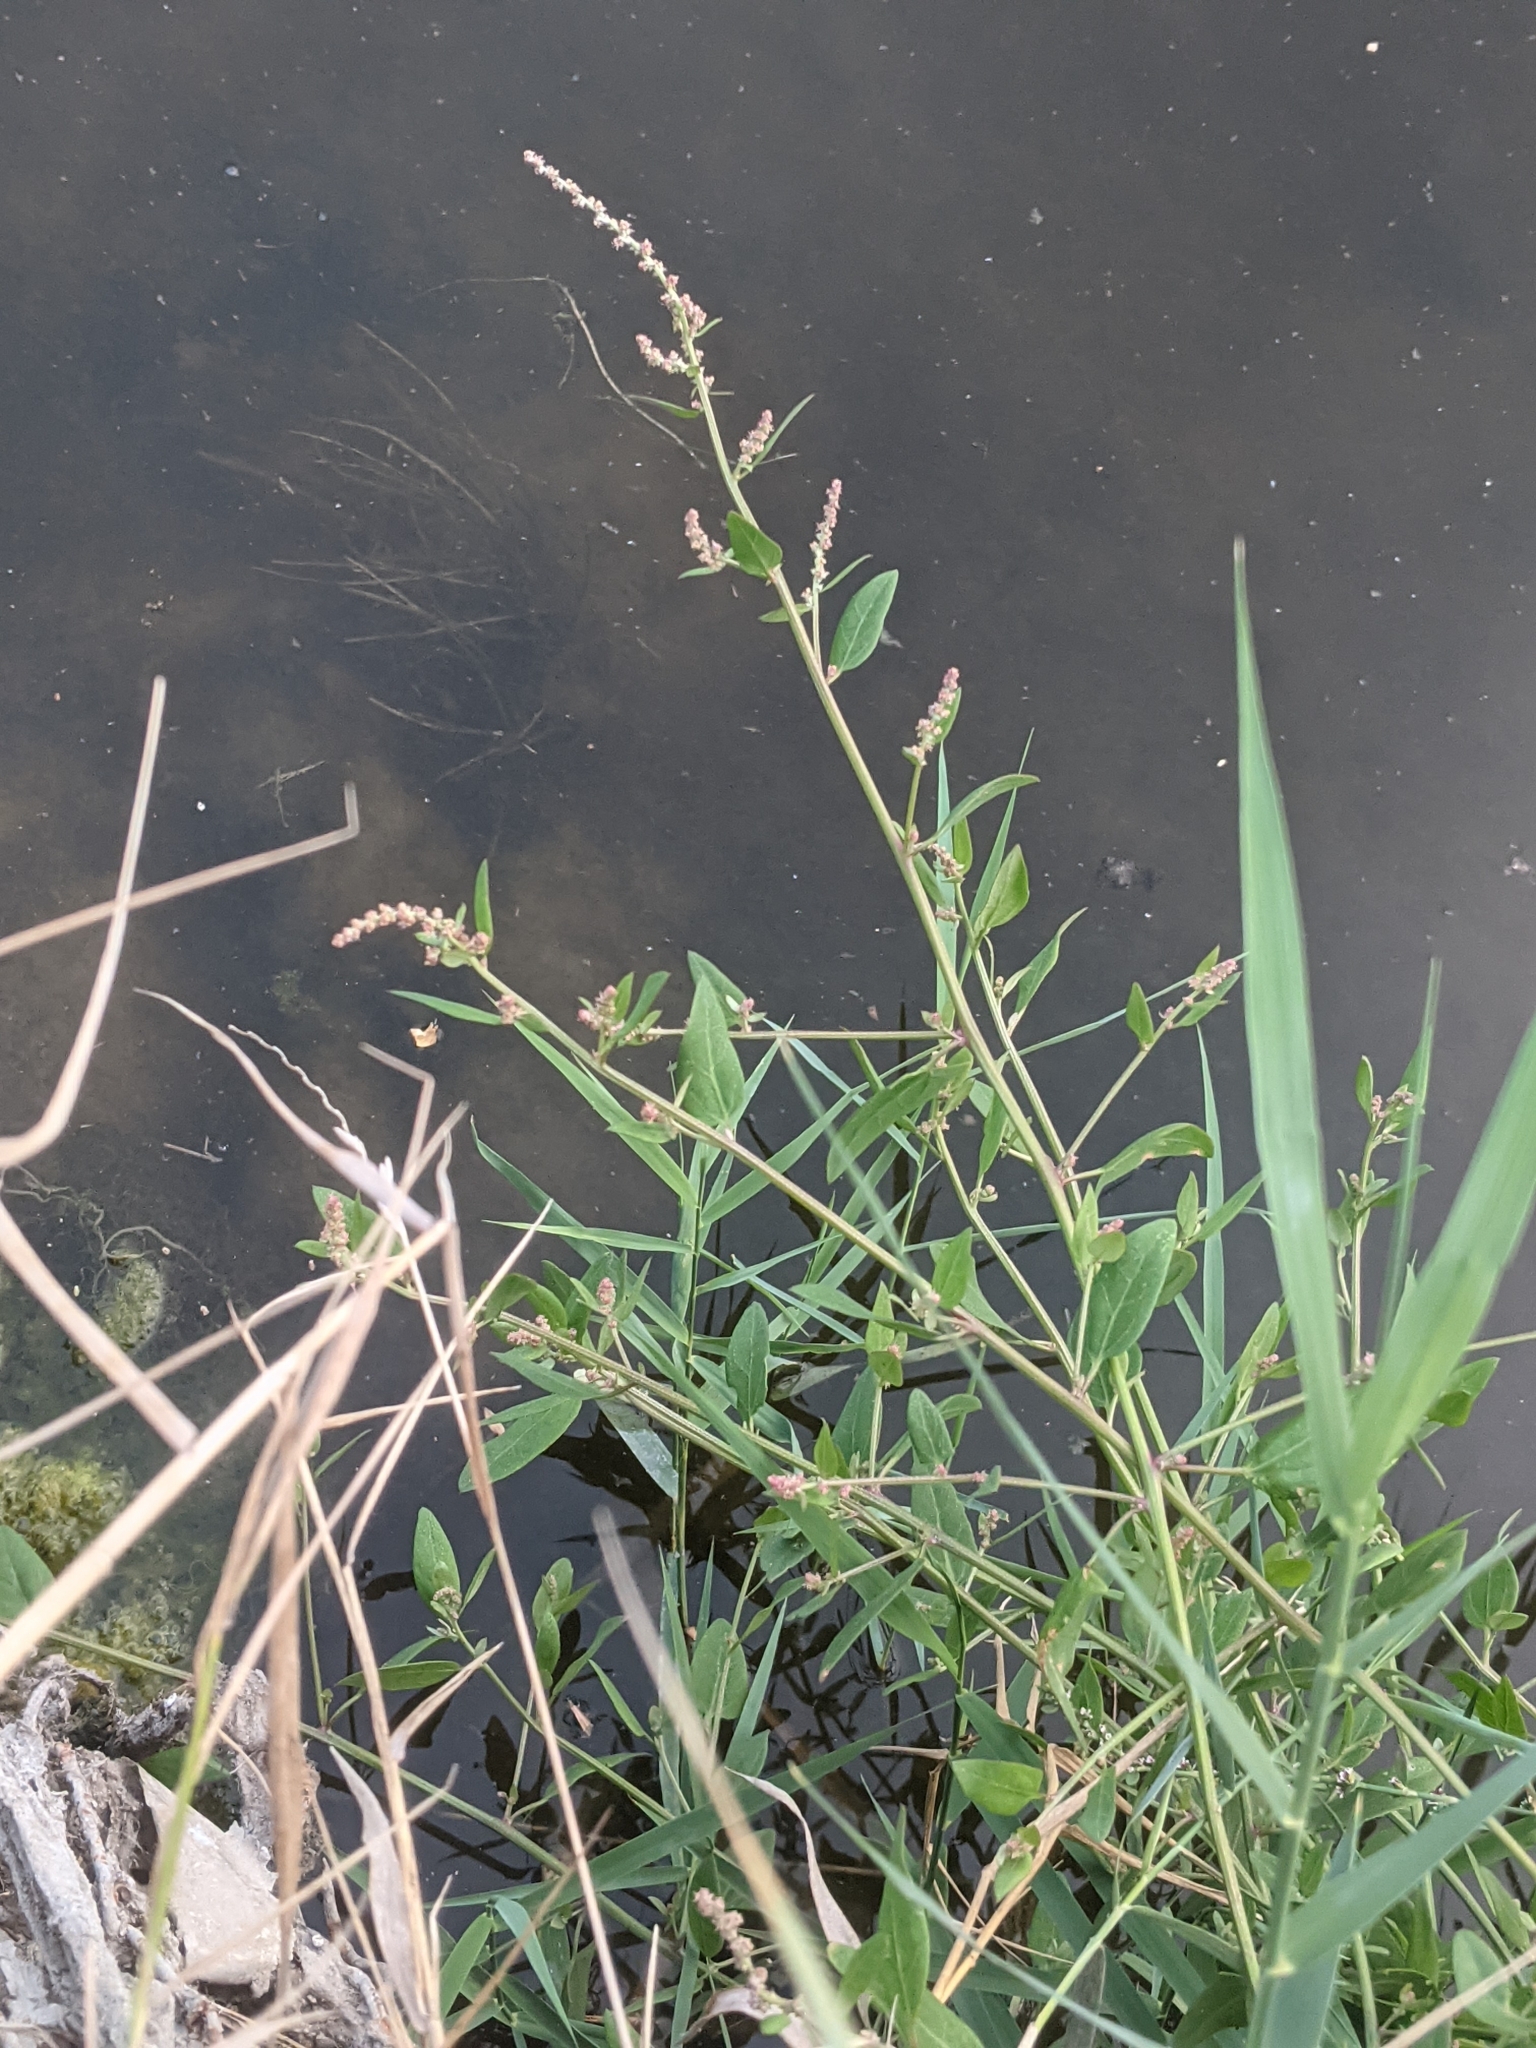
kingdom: Plantae
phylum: Tracheophyta
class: Magnoliopsida
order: Caryophyllales
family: Amaranthaceae
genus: Atriplex
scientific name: Atriplex prostrata
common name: Spear-leaved orache
